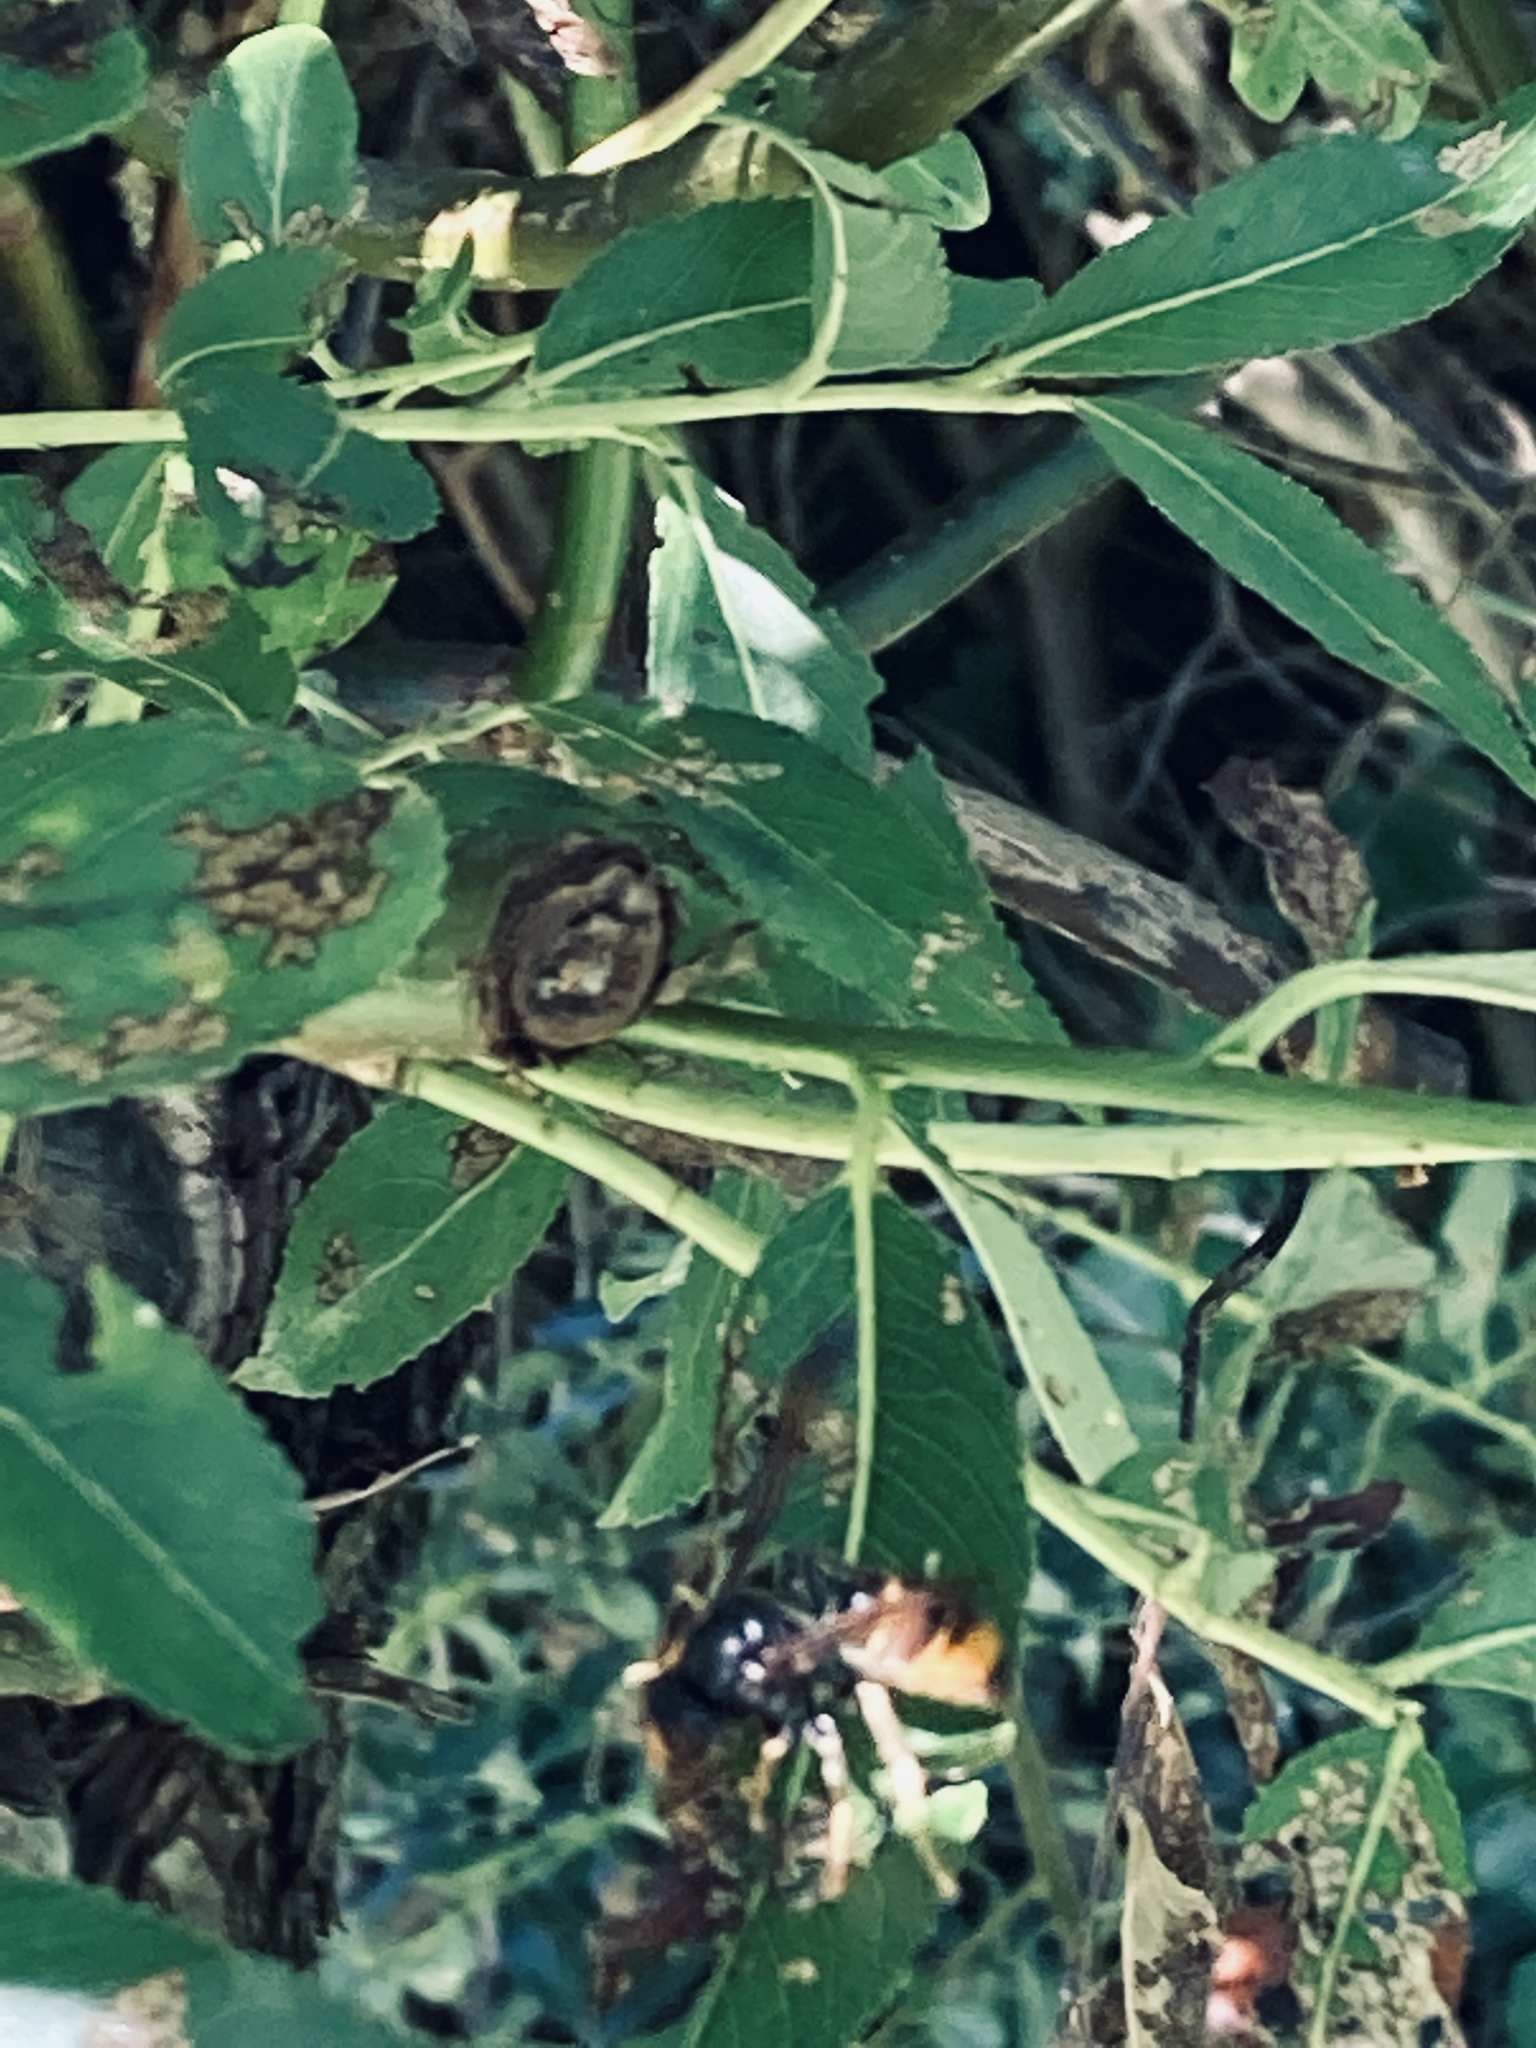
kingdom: Animalia
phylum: Arthropoda
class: Insecta
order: Hymenoptera
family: Vespidae
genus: Vespa
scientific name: Vespa velutina
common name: Asian hornet
